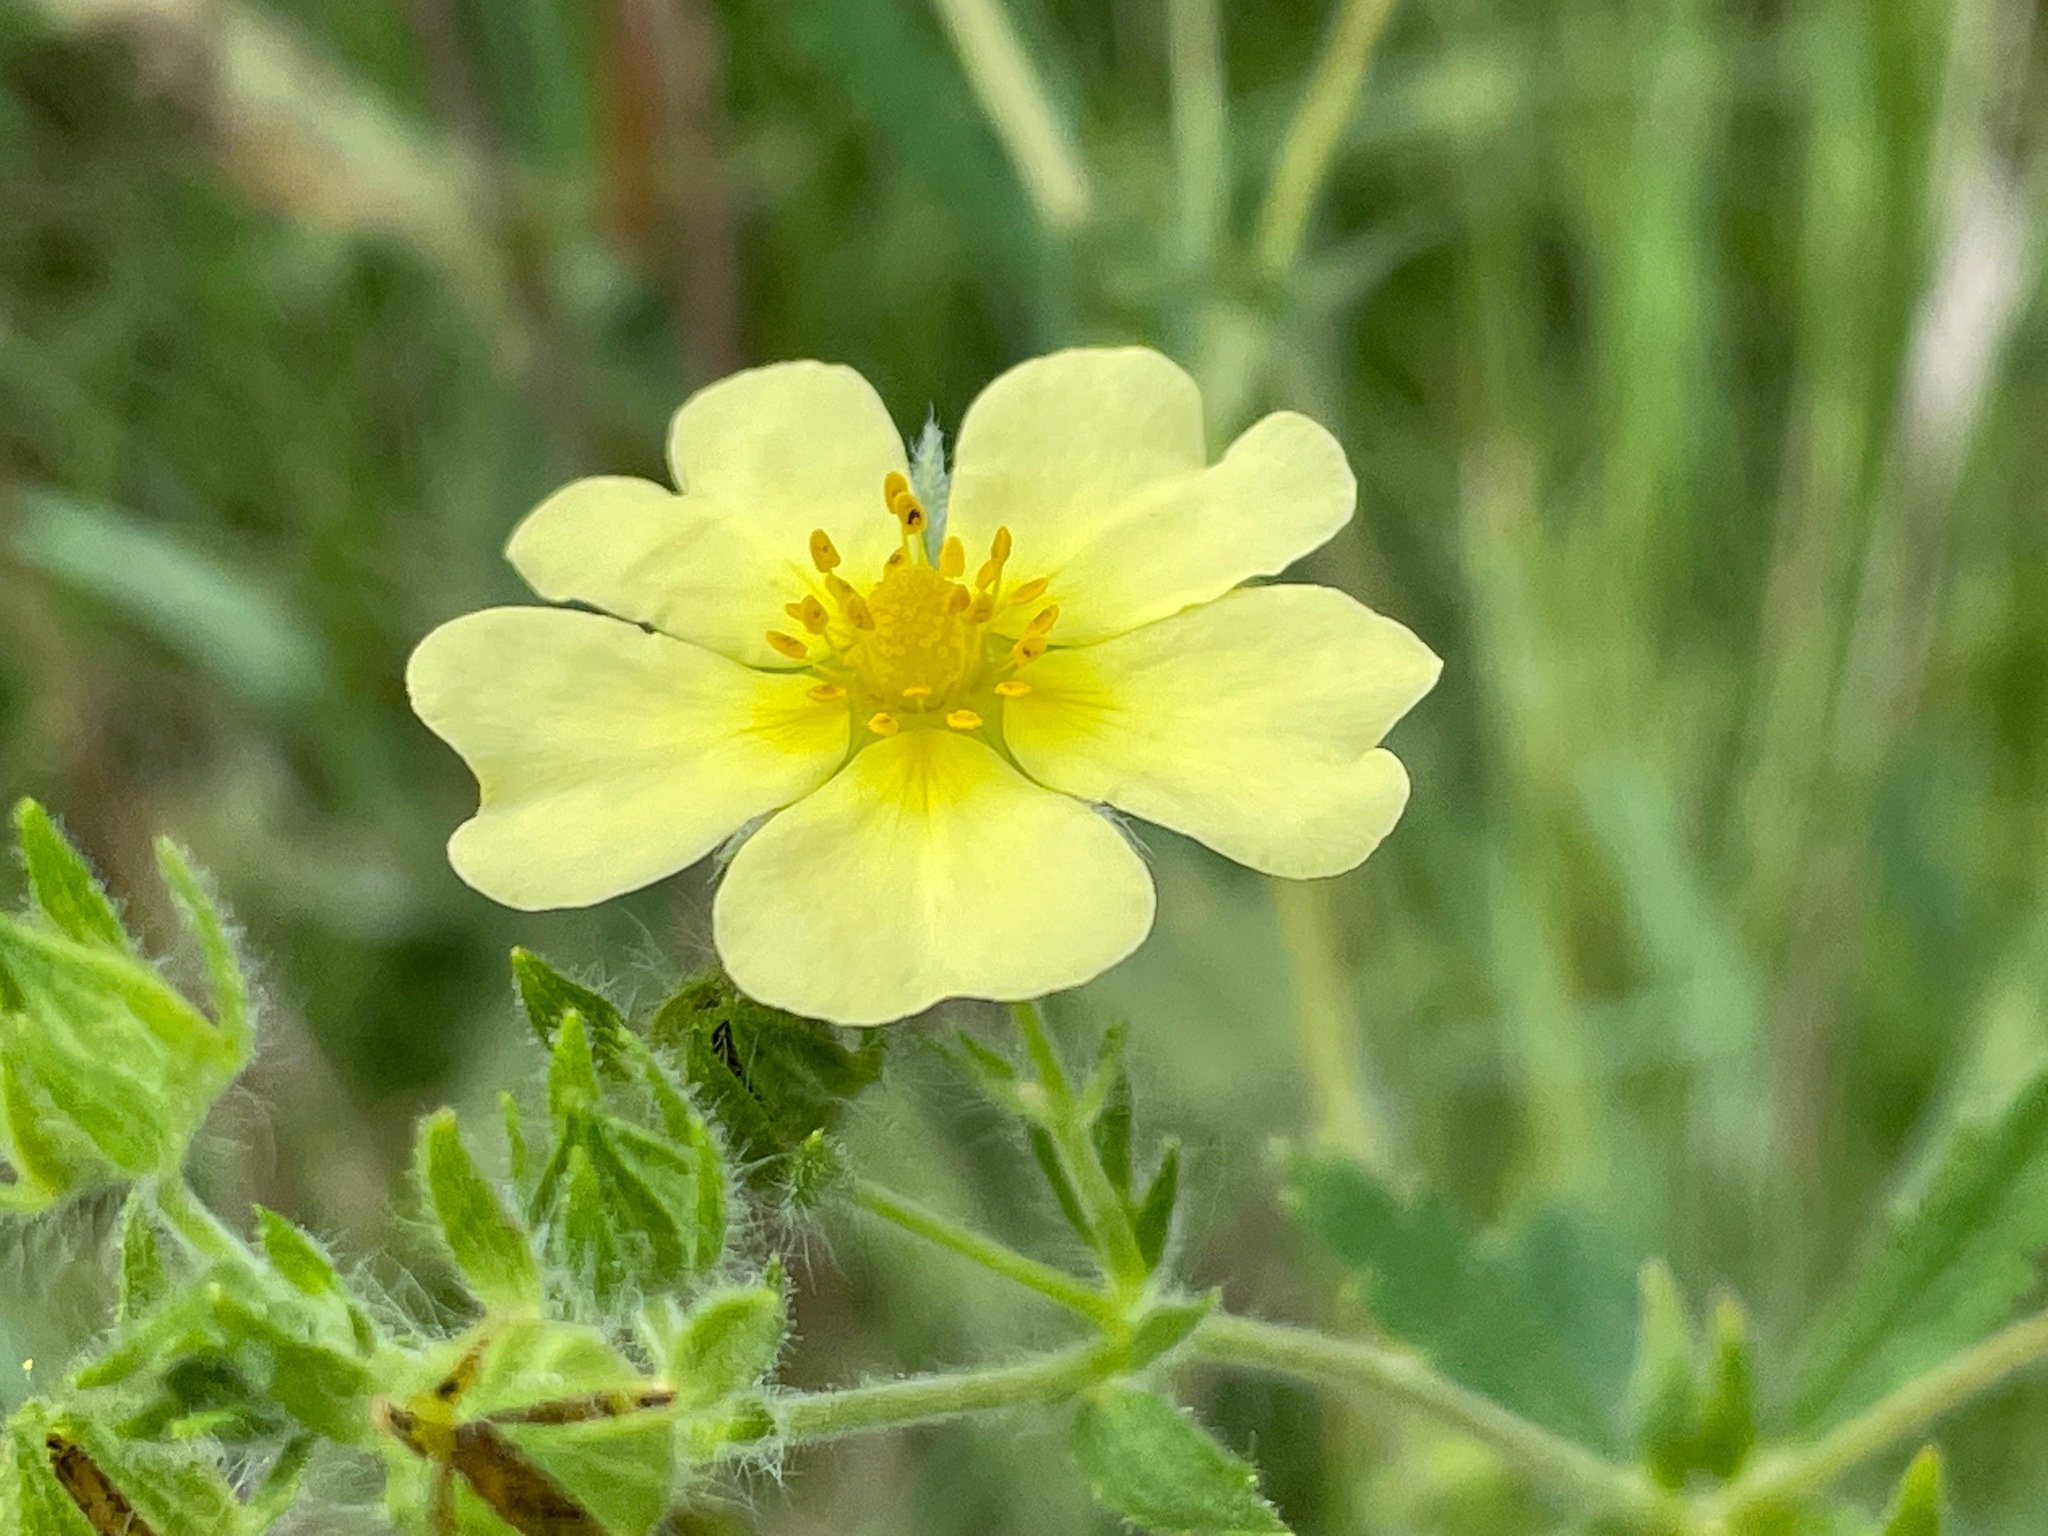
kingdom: Plantae
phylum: Tracheophyta
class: Magnoliopsida
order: Rosales
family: Rosaceae
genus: Potentilla
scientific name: Potentilla recta
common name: Sulphur cinquefoil
